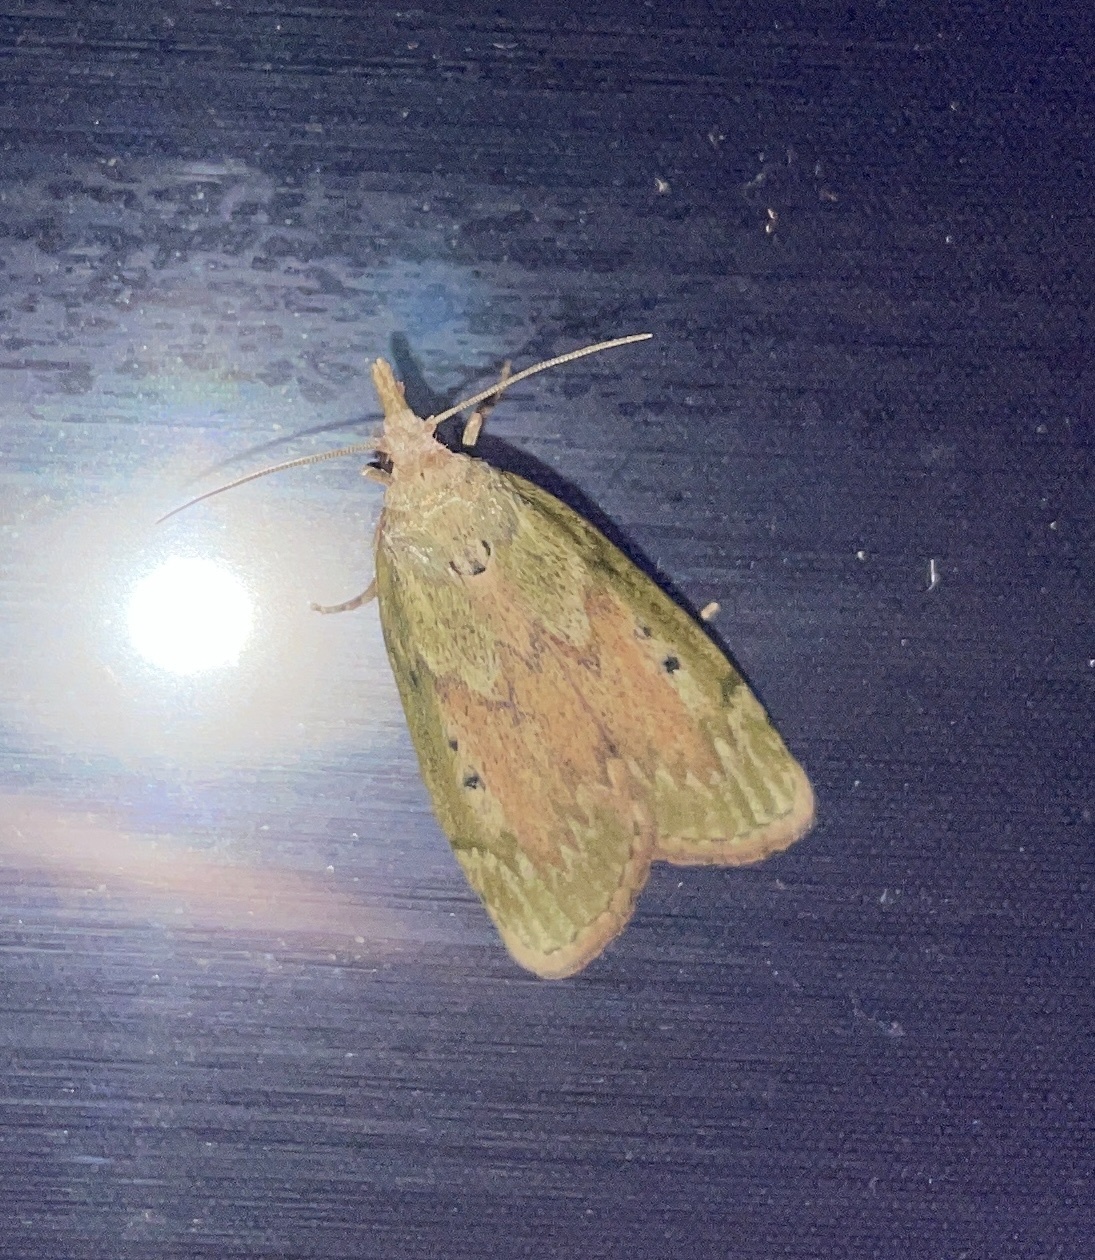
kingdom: Animalia
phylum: Arthropoda
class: Insecta
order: Lepidoptera
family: Pyralidae
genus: Aphomia
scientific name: Aphomia sociella
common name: Bee moth
